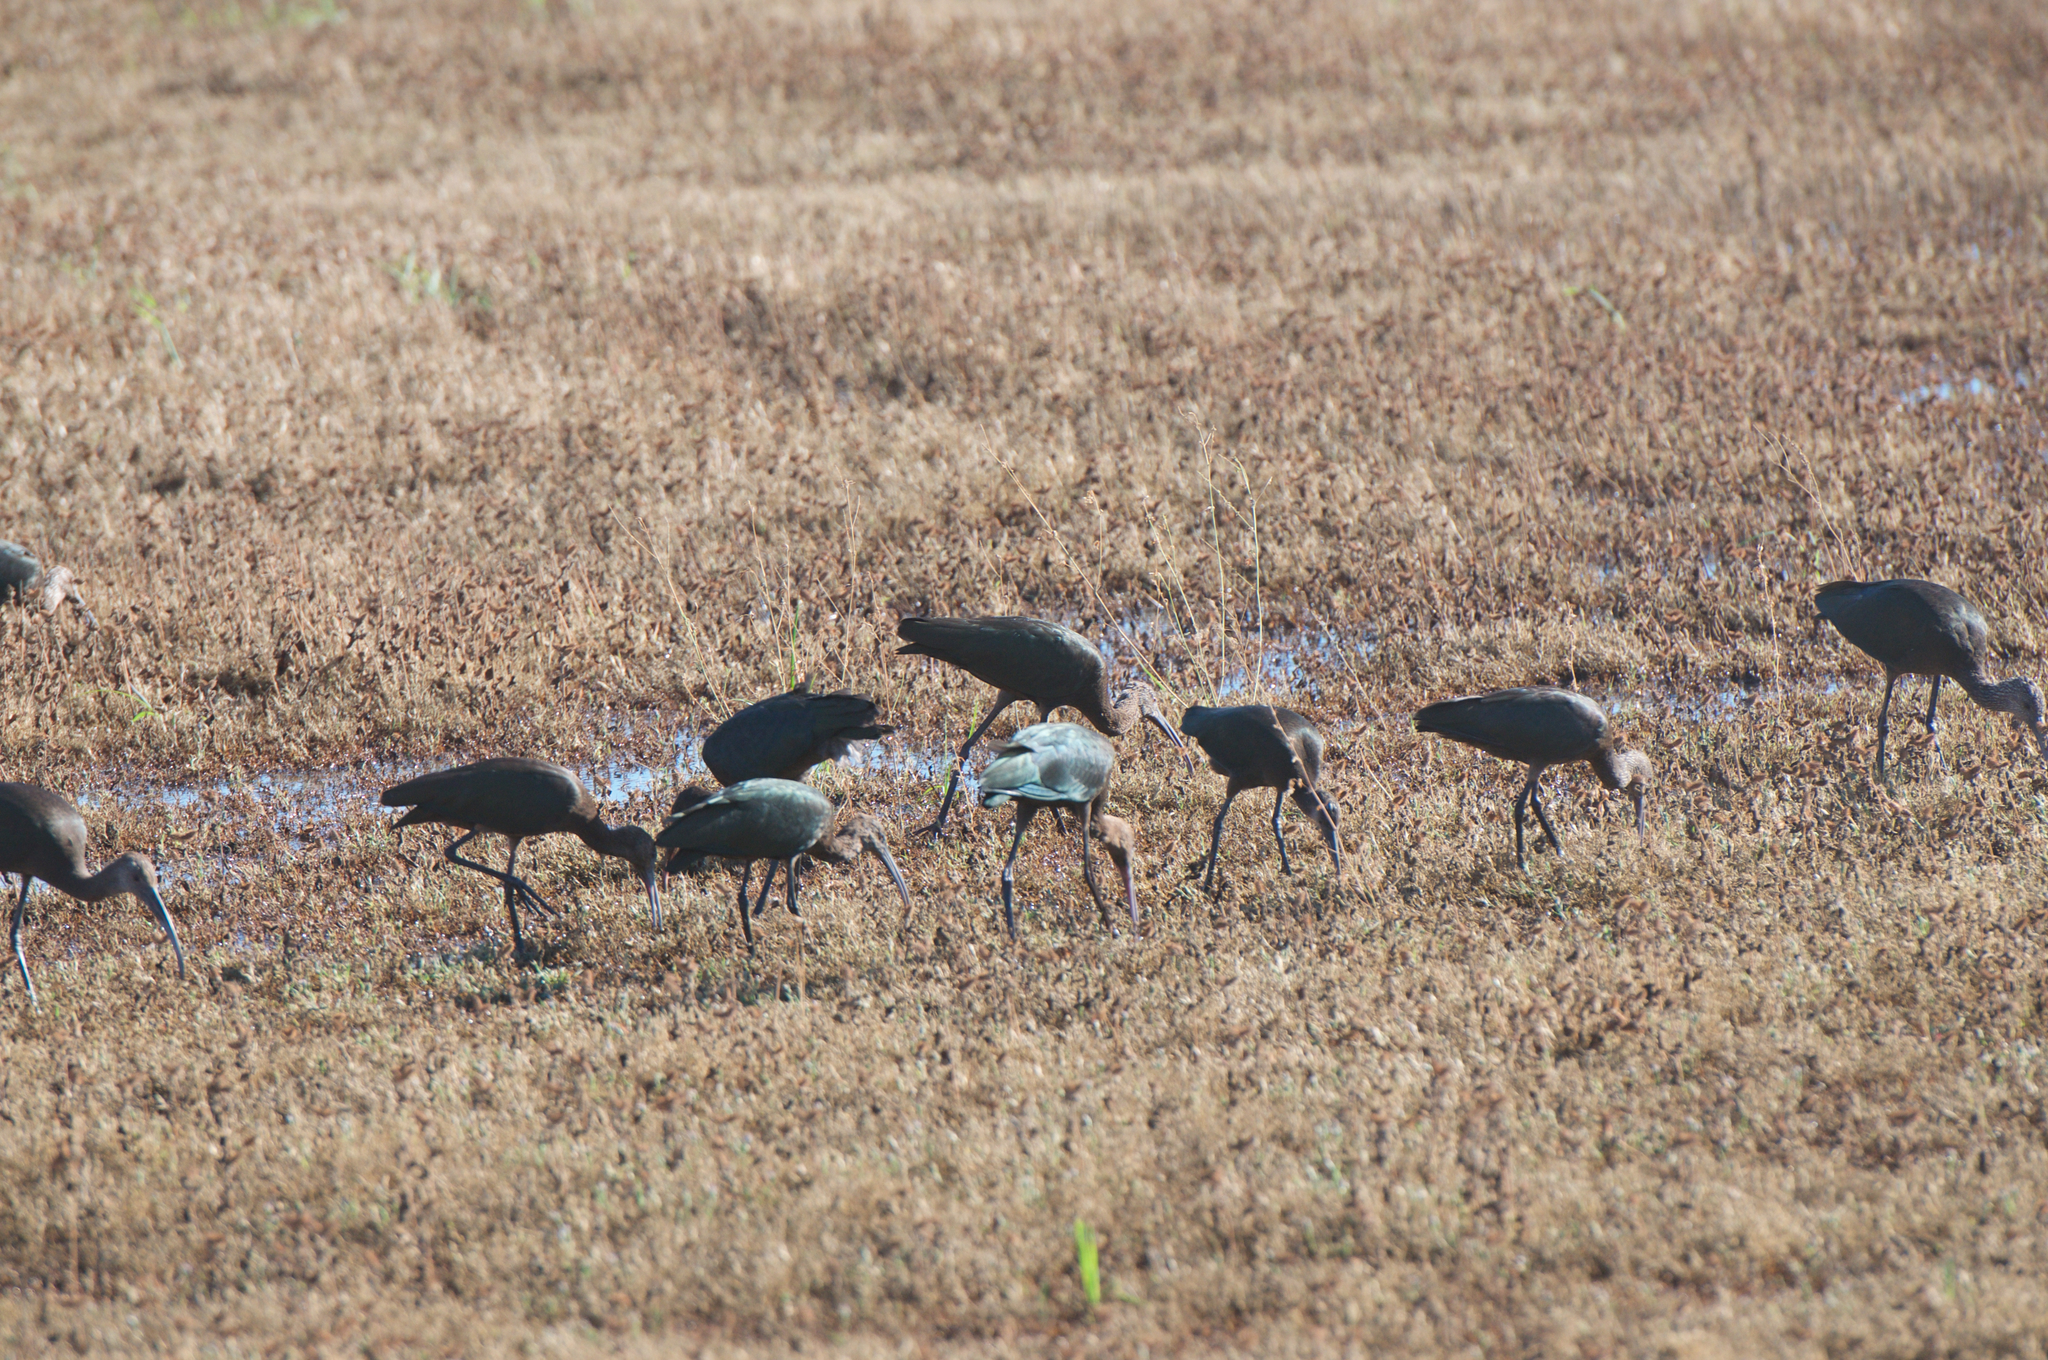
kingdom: Animalia
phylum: Chordata
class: Aves
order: Pelecaniformes
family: Threskiornithidae
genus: Plegadis
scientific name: Plegadis chihi
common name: White-faced ibis
